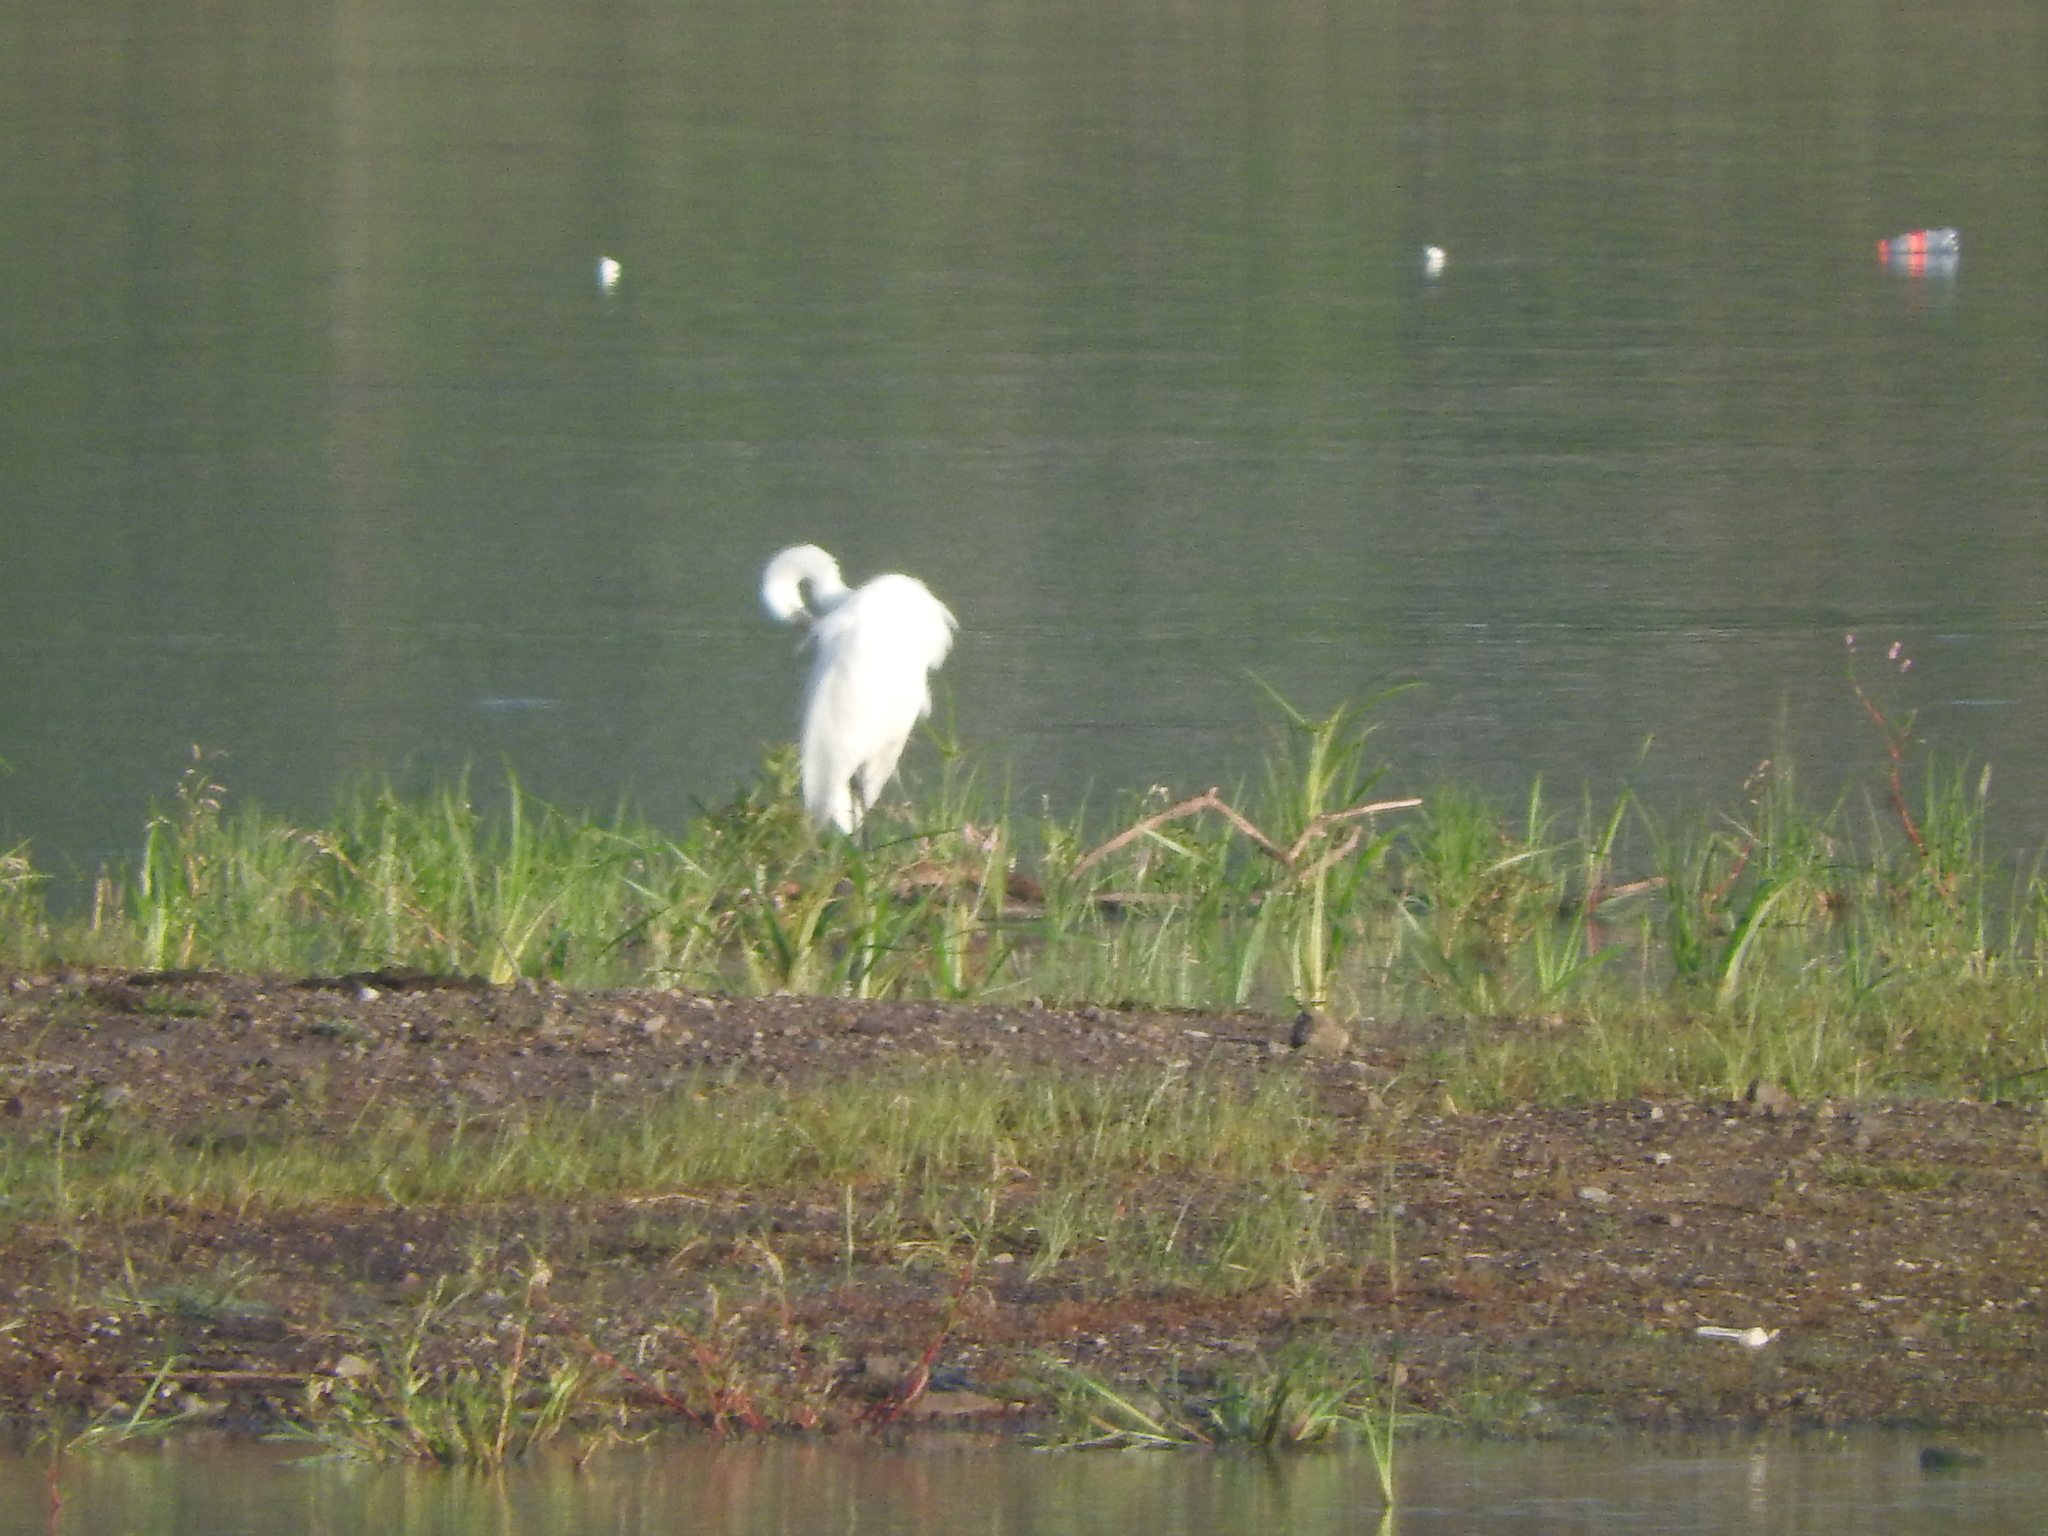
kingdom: Animalia
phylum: Chordata
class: Aves
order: Pelecaniformes
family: Ardeidae
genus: Ardea
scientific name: Ardea alba
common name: Great egret
